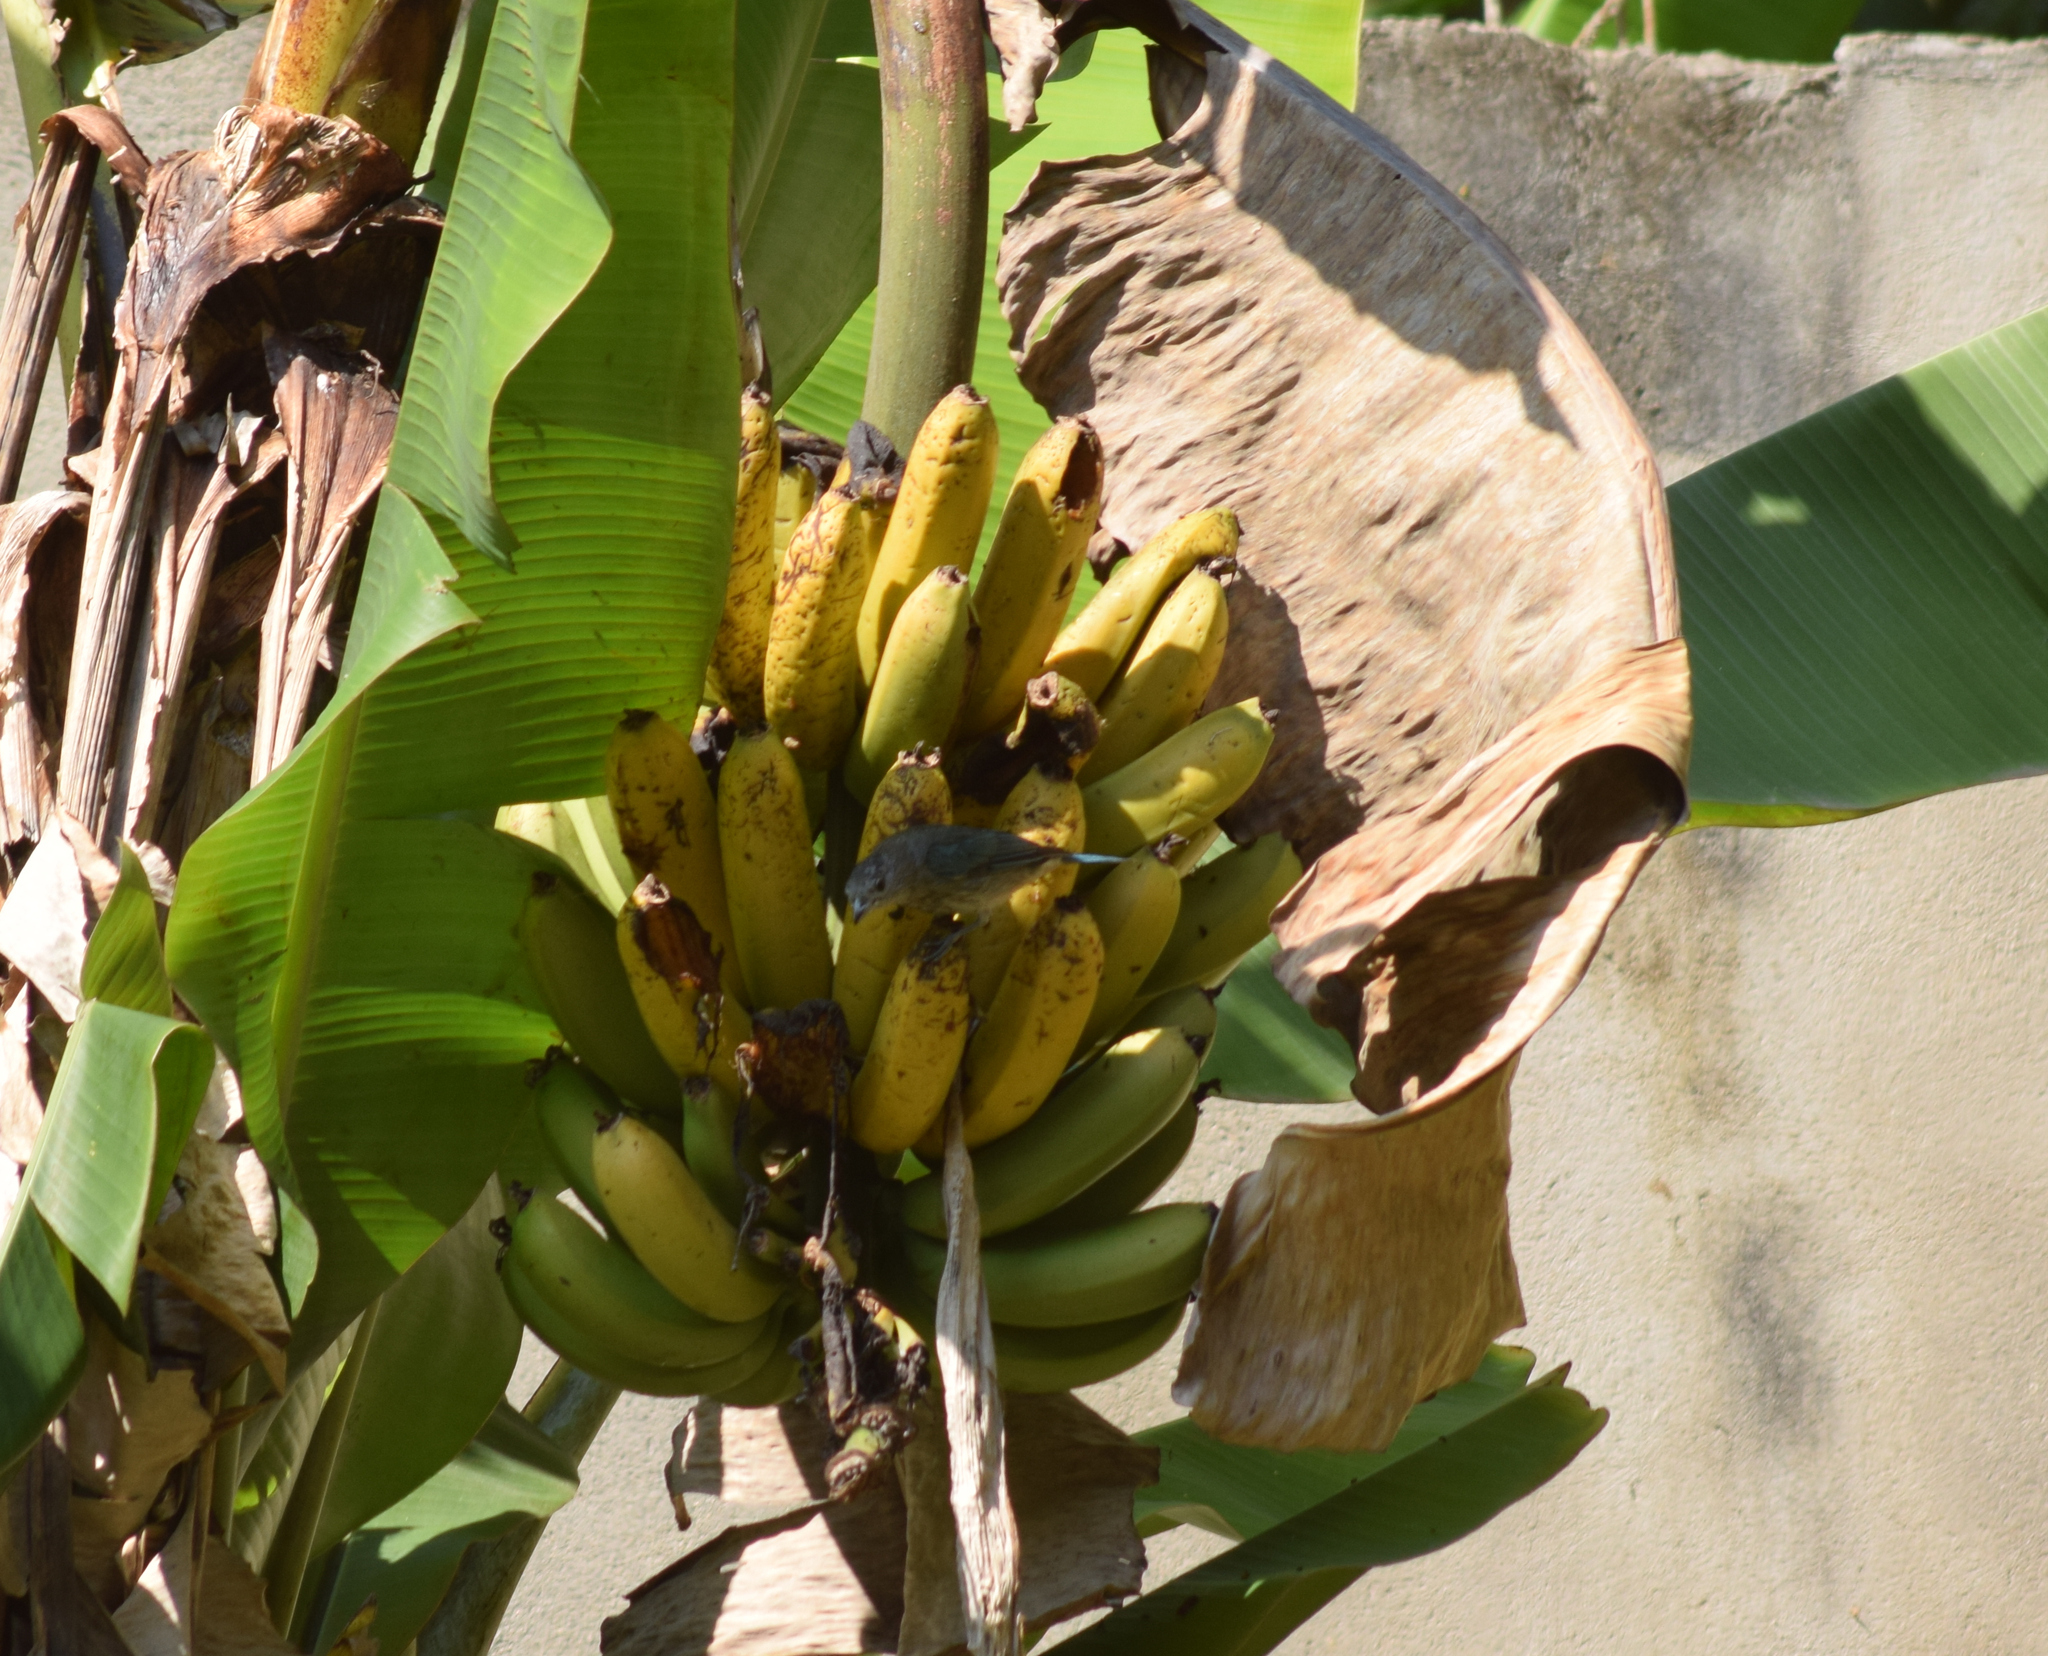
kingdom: Animalia
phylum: Chordata
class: Aves
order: Passeriformes
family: Thraupidae
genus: Thraupis
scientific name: Thraupis sayaca
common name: Sayaca tanager
